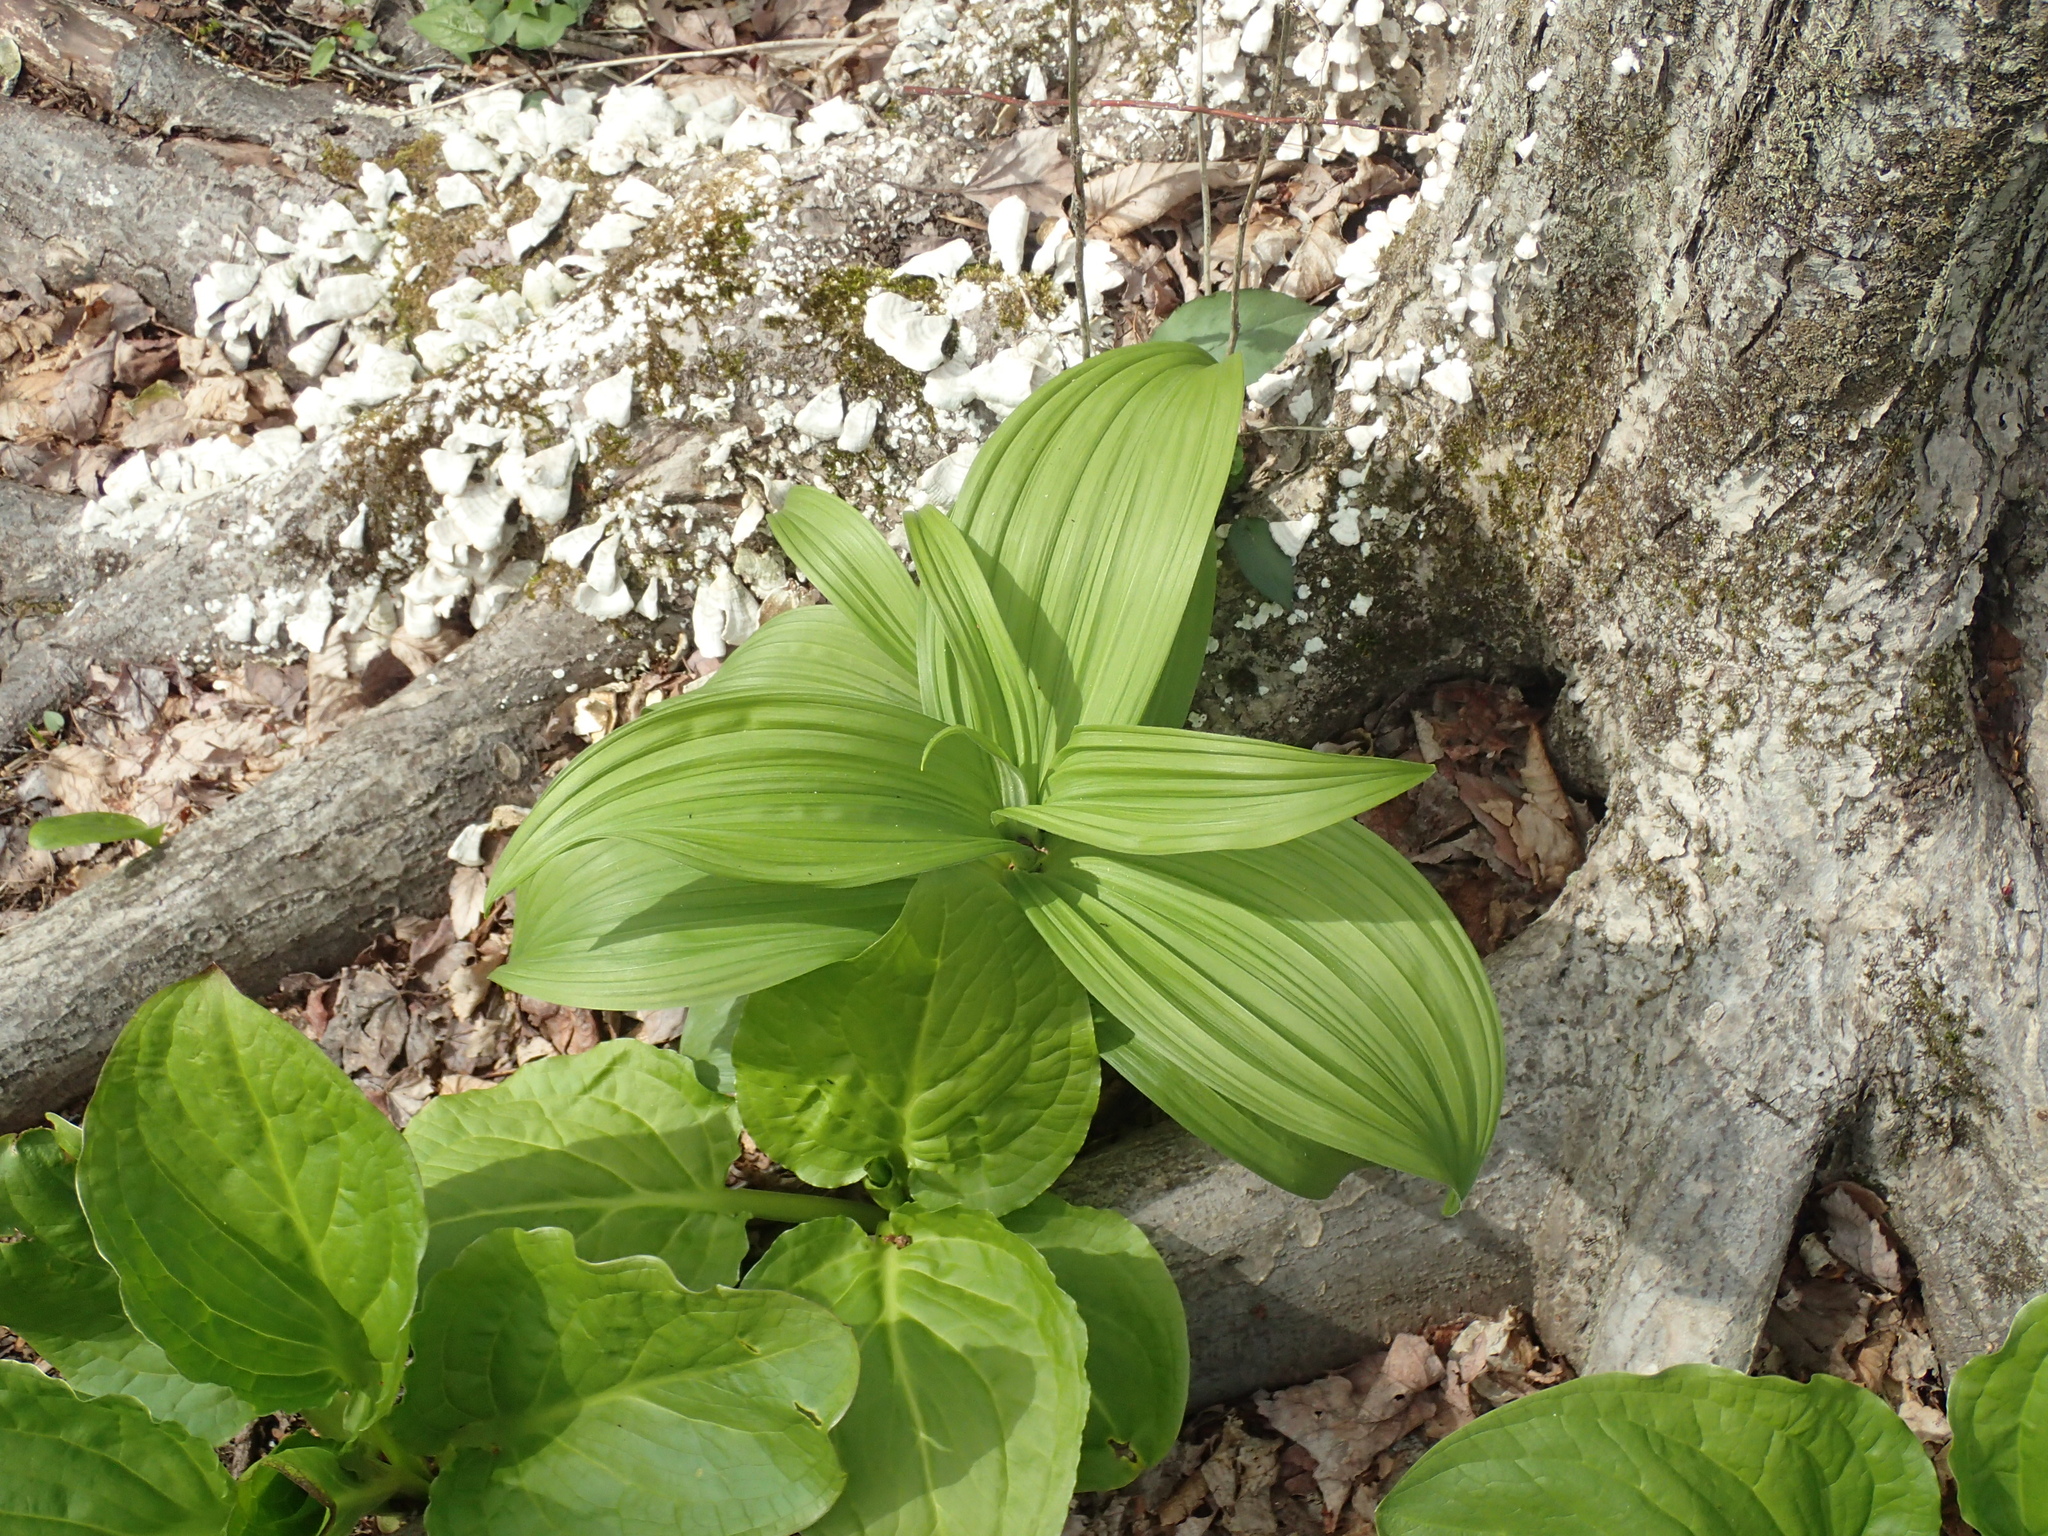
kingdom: Plantae
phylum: Tracheophyta
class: Liliopsida
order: Liliales
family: Melanthiaceae
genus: Veratrum
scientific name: Veratrum viride
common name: American false hellebore
